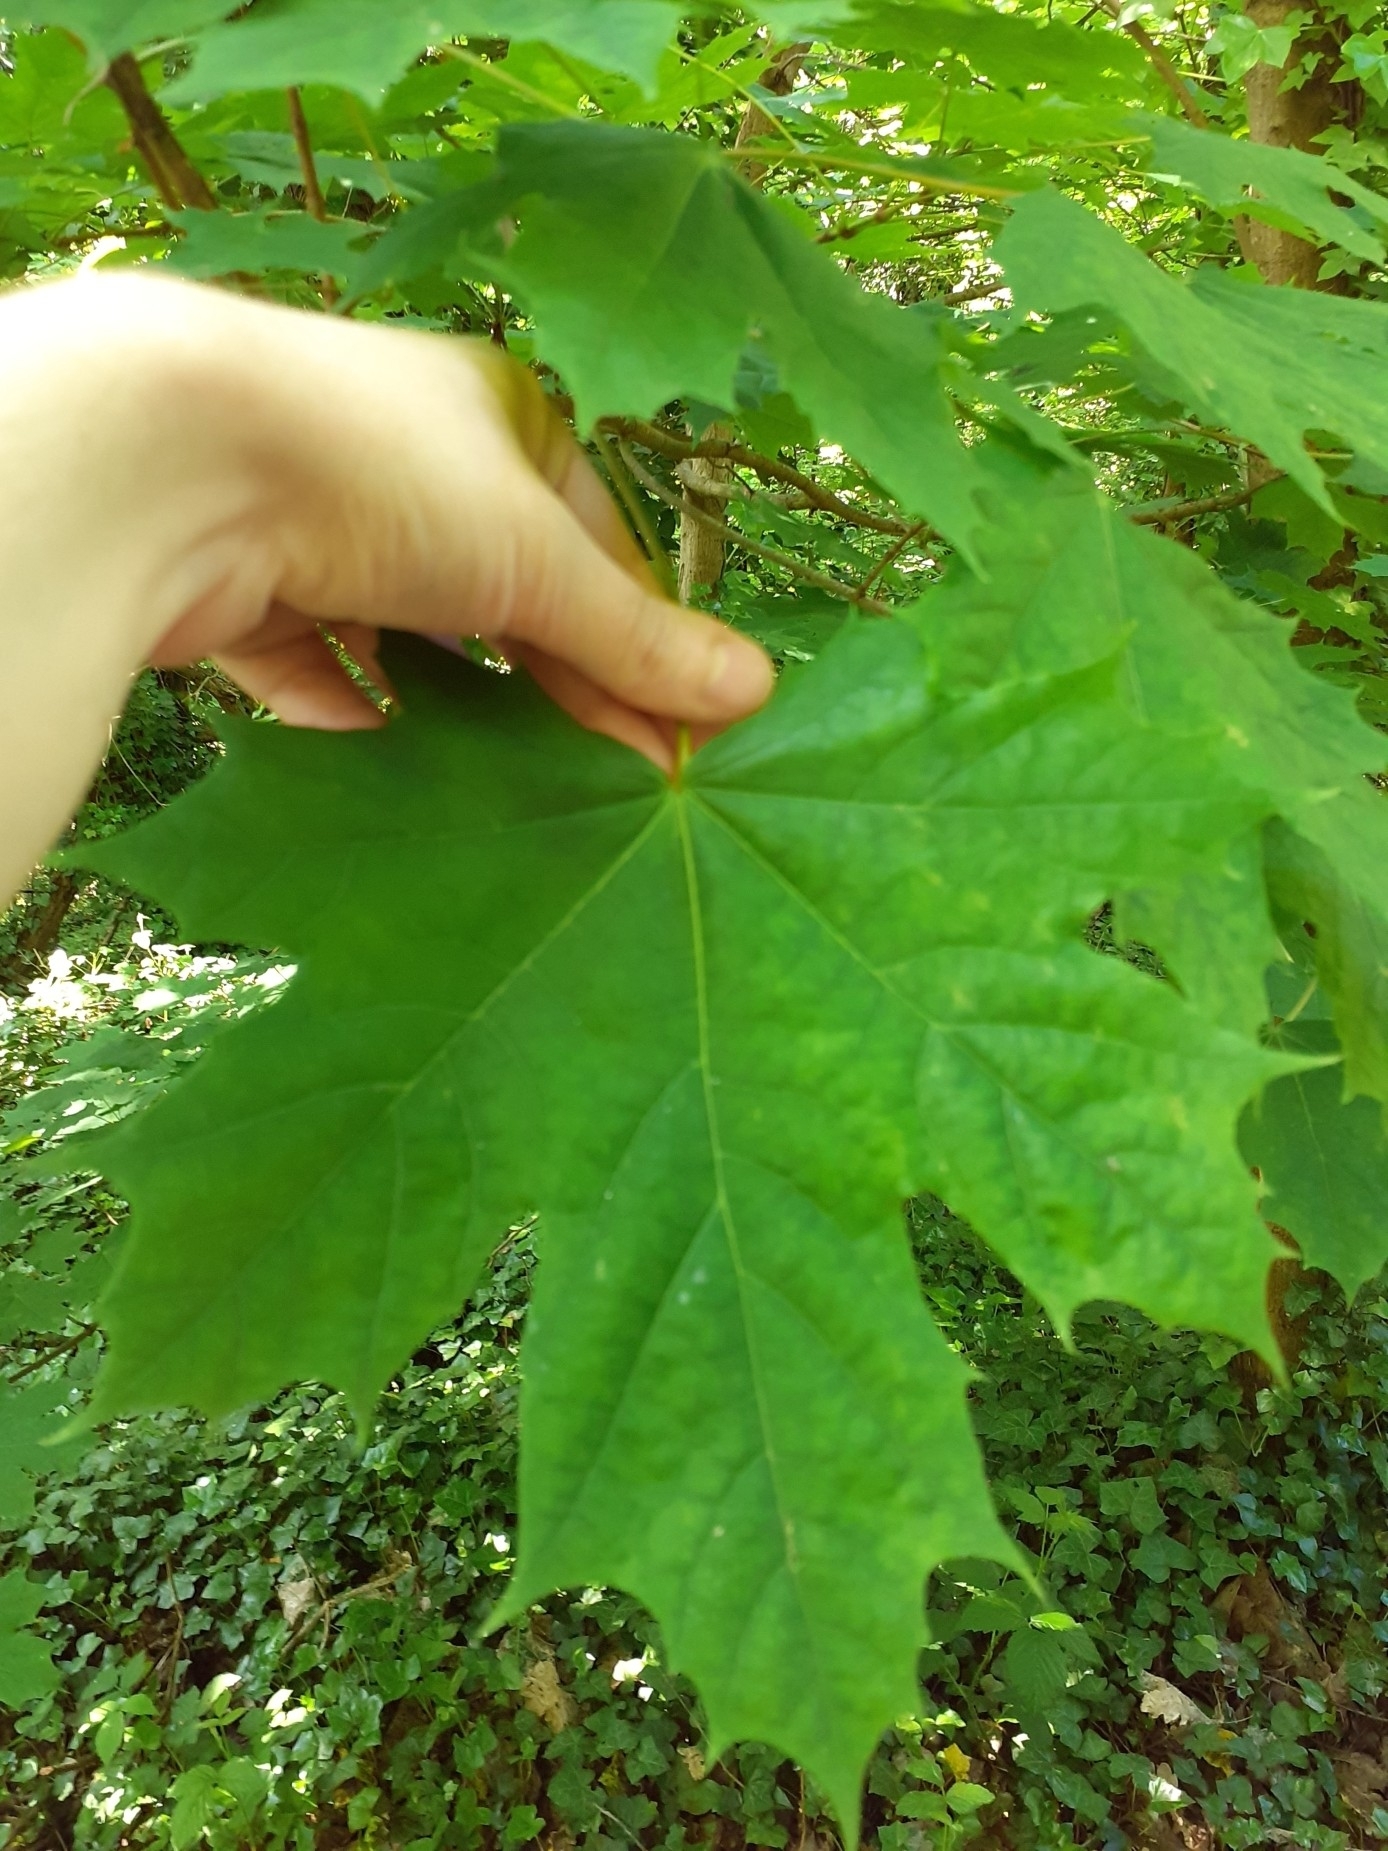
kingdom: Plantae
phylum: Tracheophyta
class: Magnoliopsida
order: Sapindales
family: Sapindaceae
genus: Acer
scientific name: Acer platanoides
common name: Norway maple
